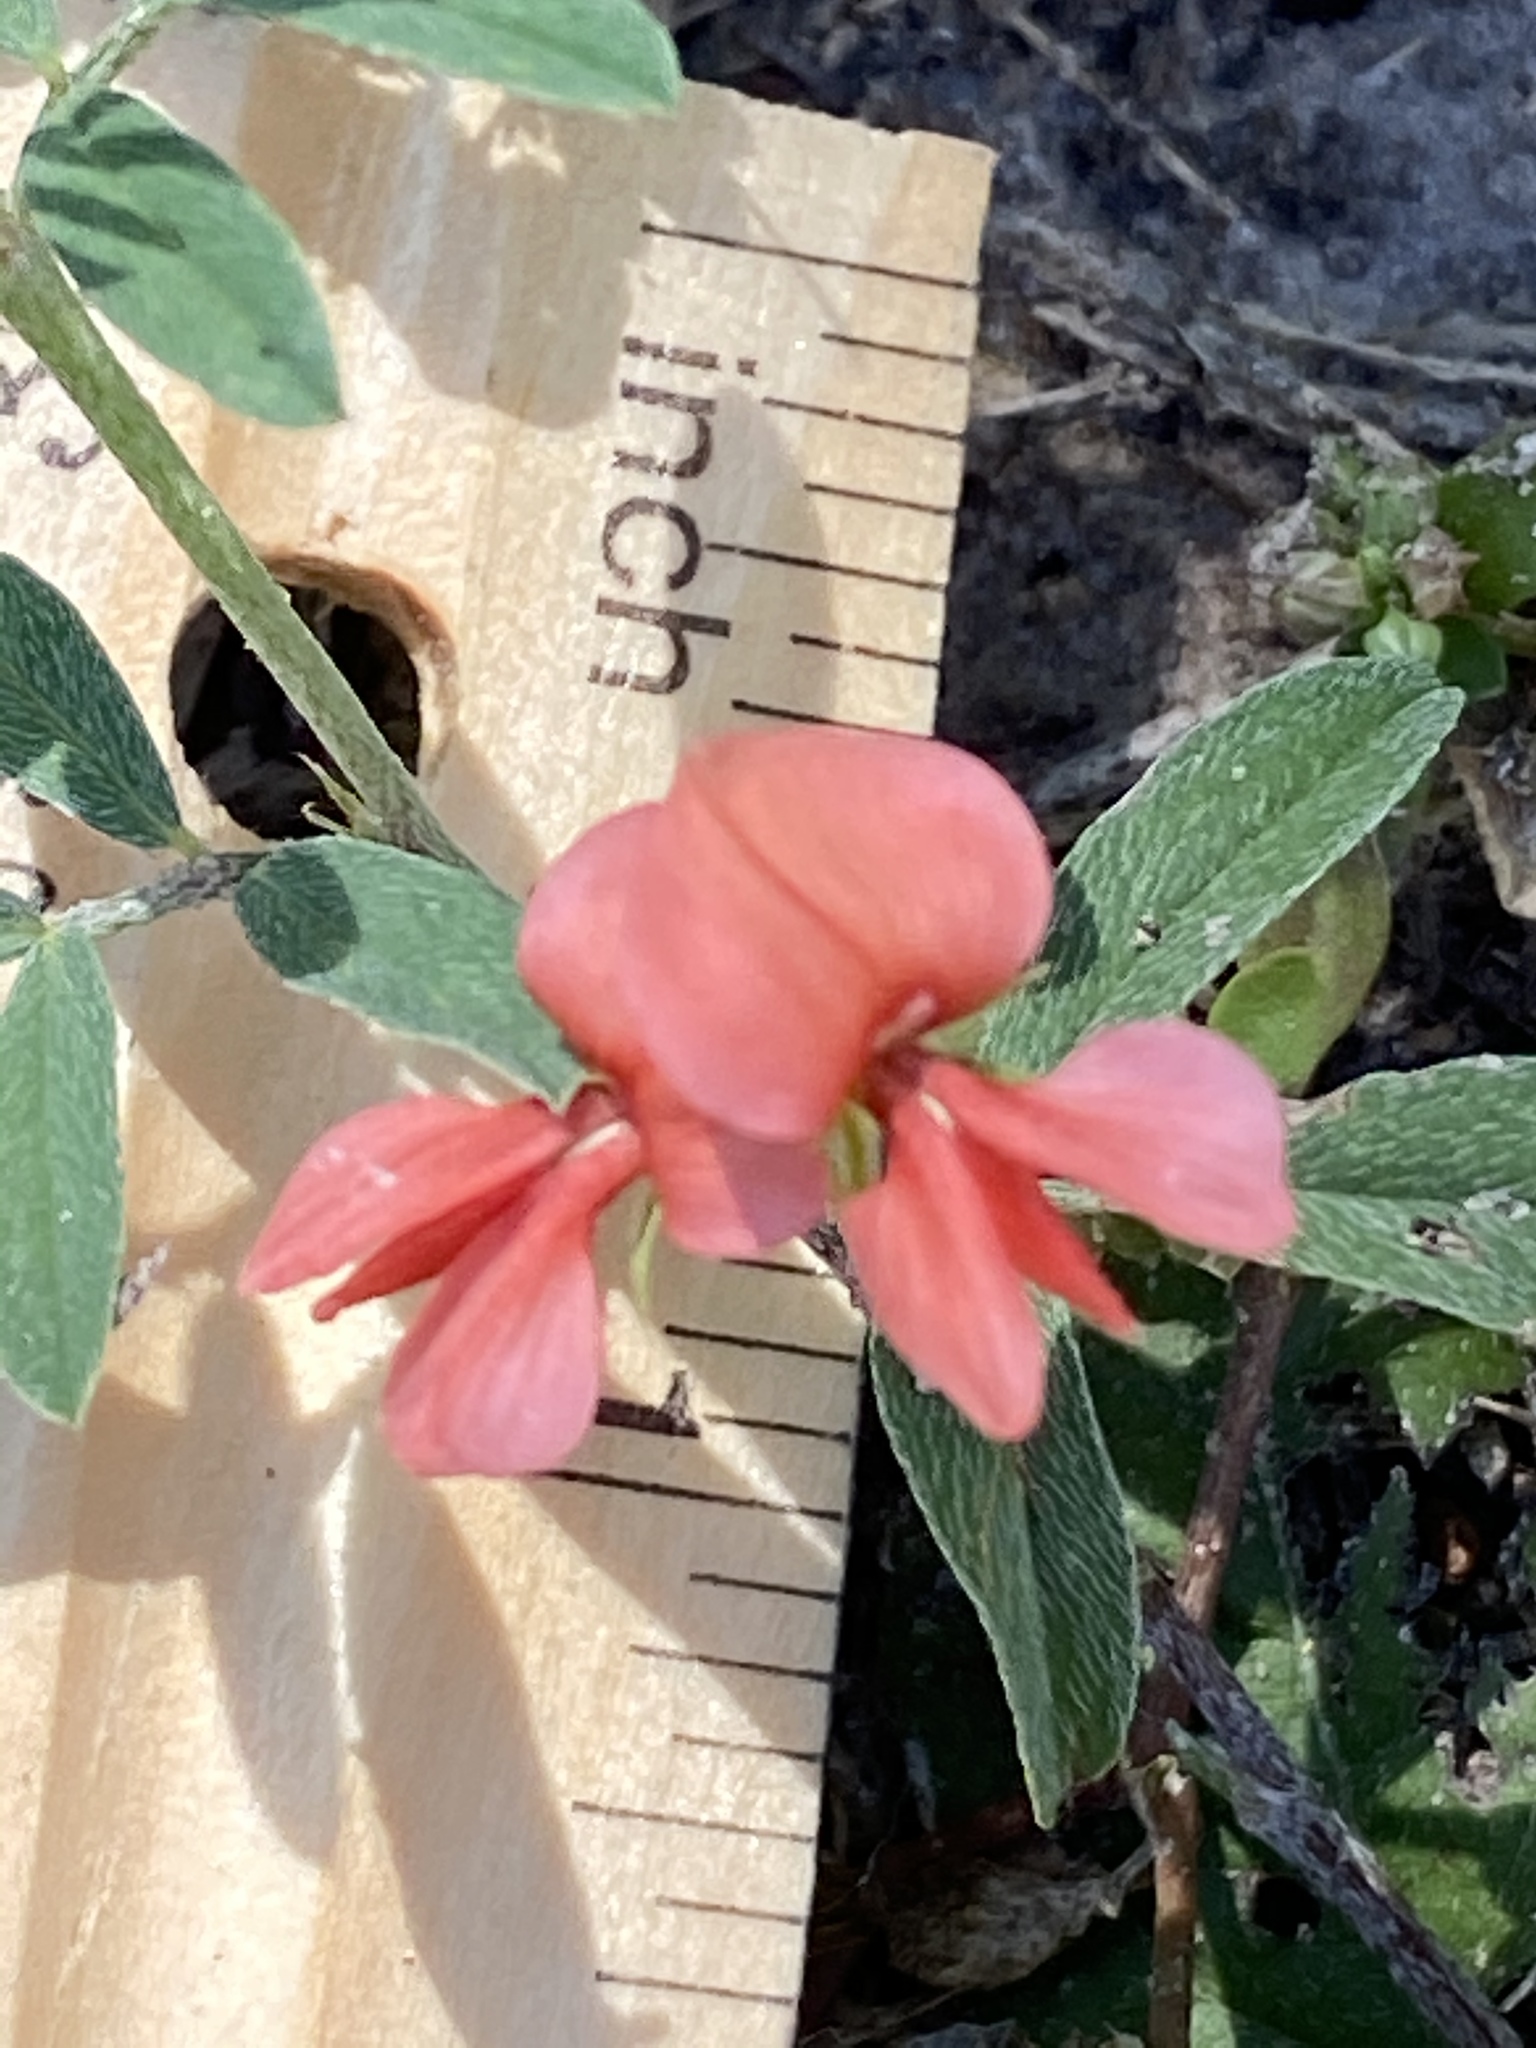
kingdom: Plantae
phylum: Tracheophyta
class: Magnoliopsida
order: Fabales
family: Fabaceae
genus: Indigofera
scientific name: Indigofera miniata
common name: Coast indigo
